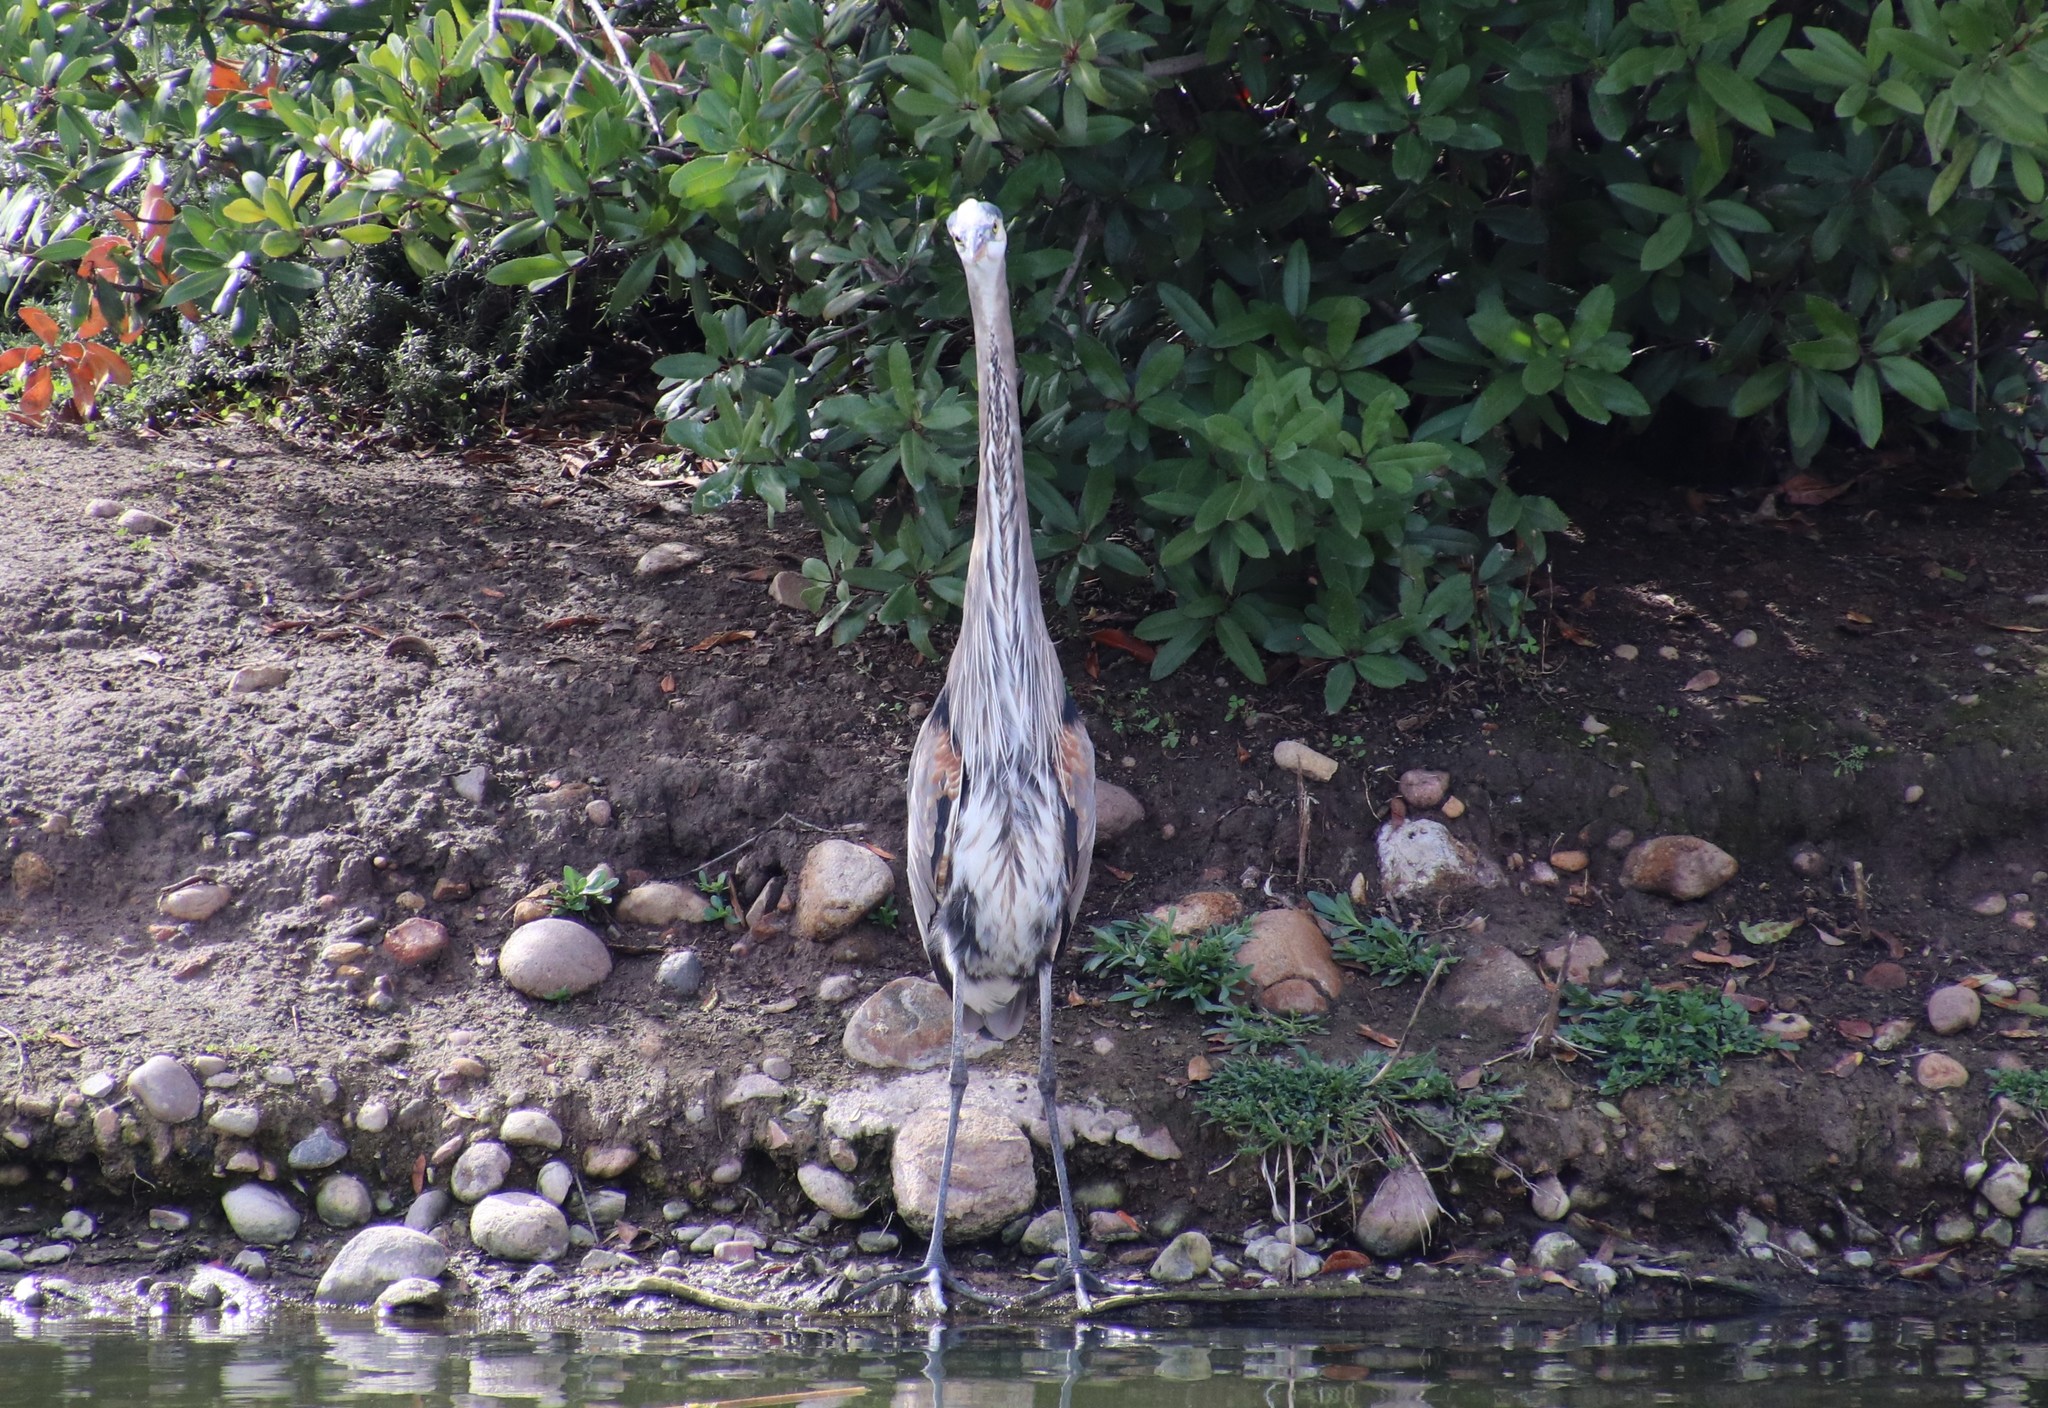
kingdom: Animalia
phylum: Chordata
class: Aves
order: Pelecaniformes
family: Ardeidae
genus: Ardea
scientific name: Ardea herodias
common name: Great blue heron
